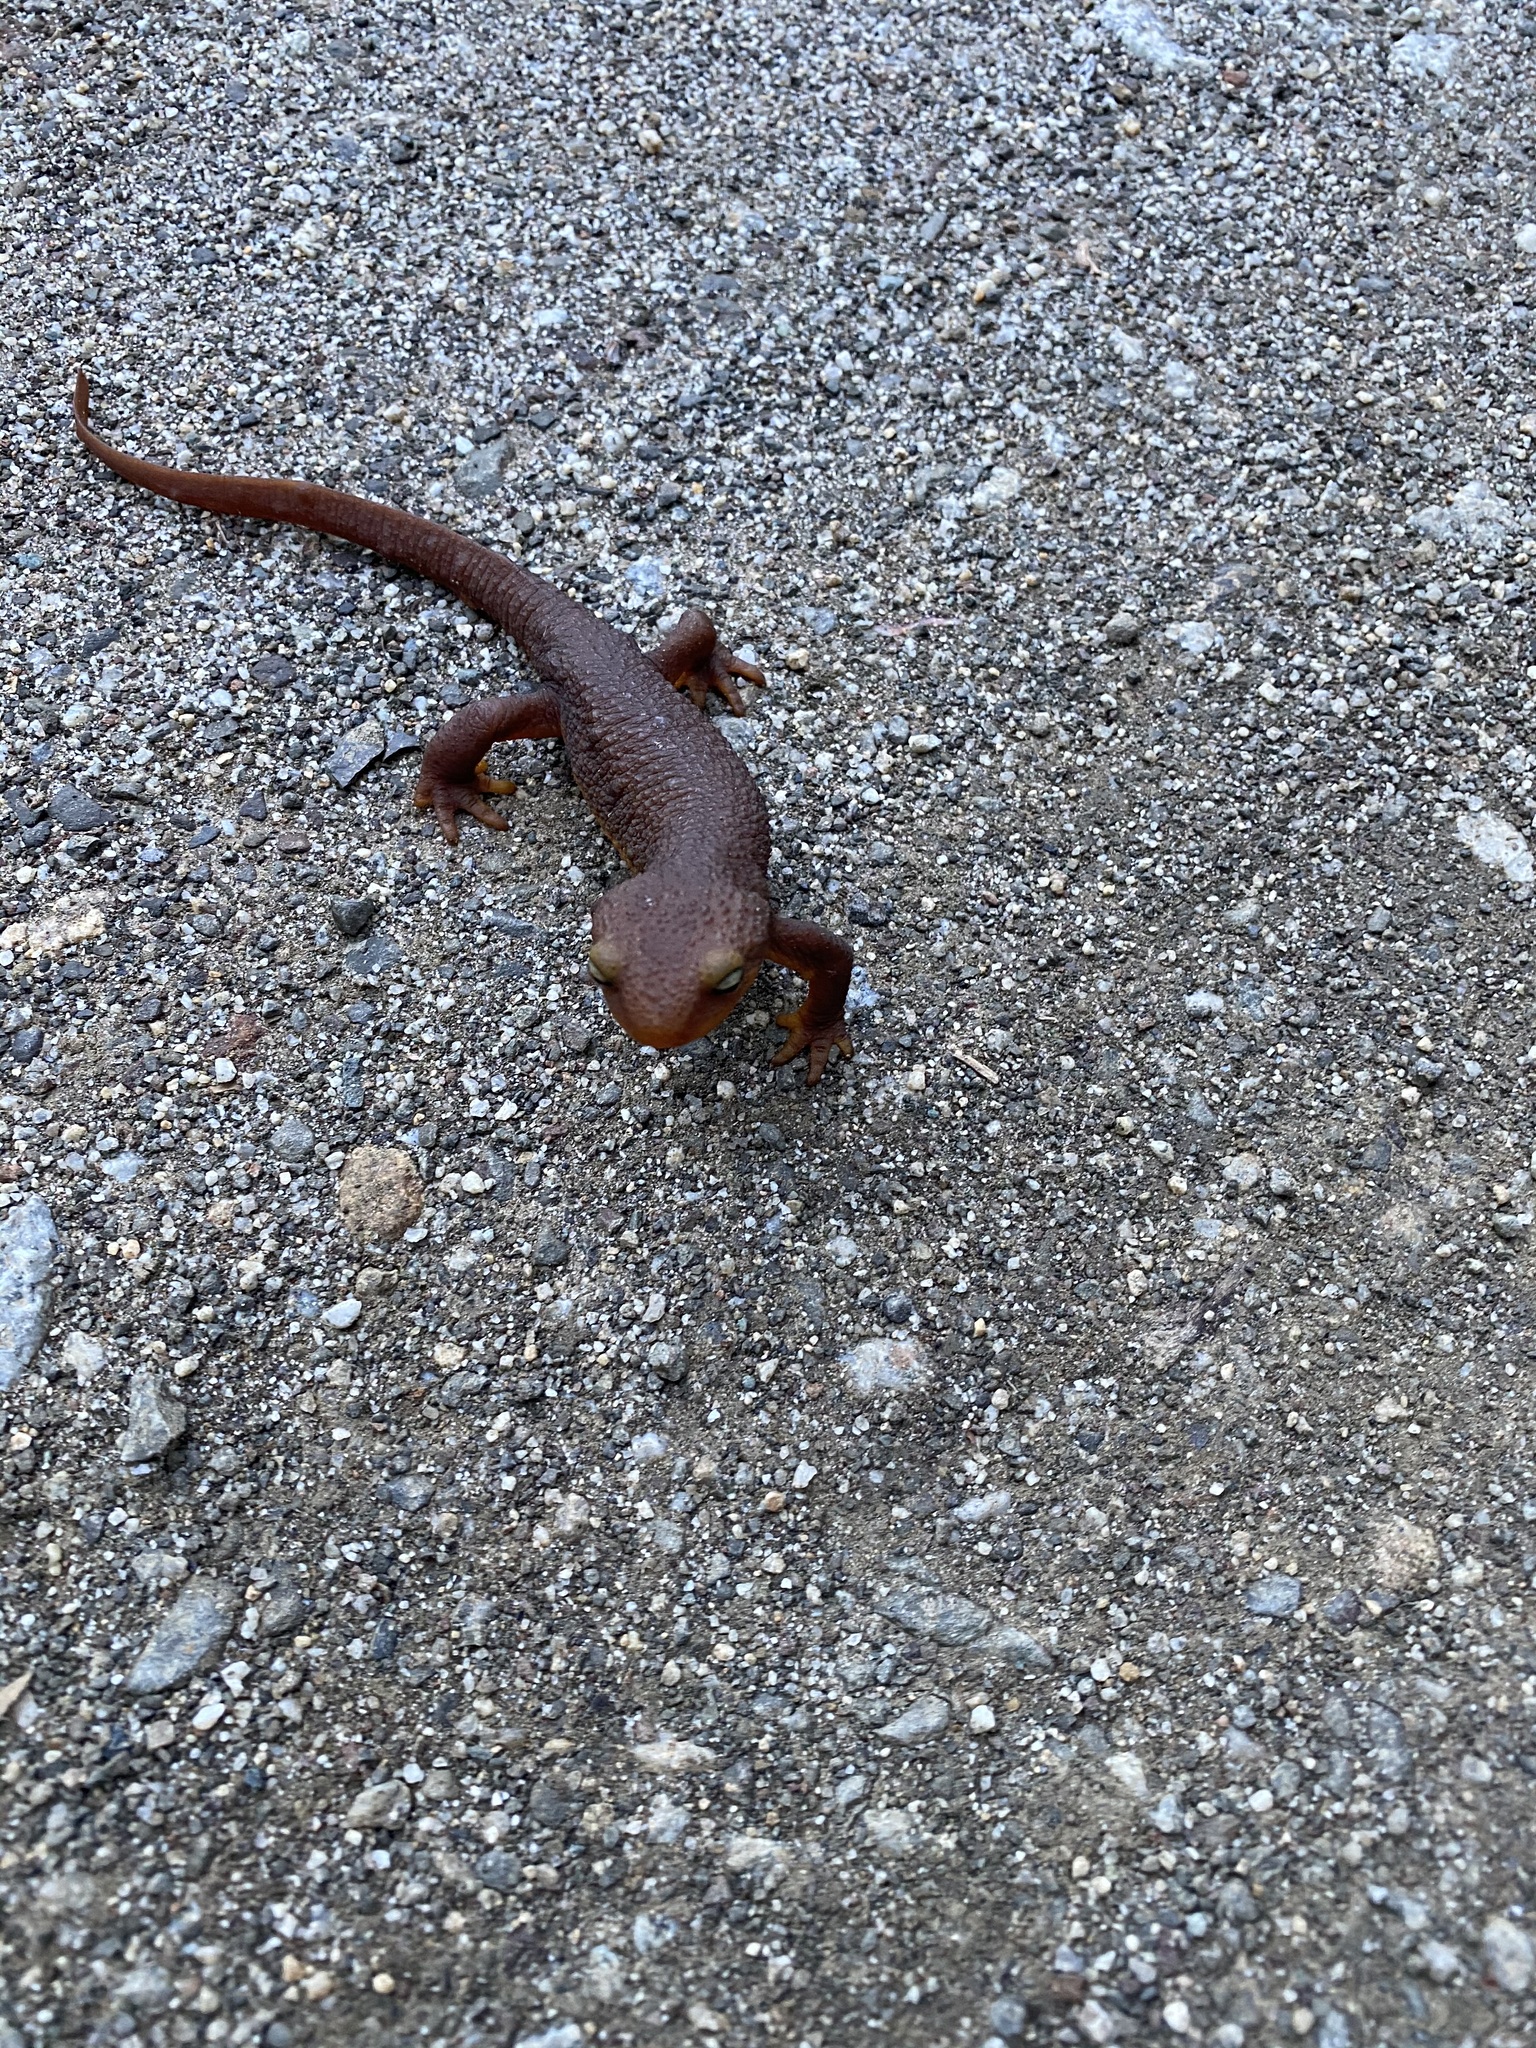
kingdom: Animalia
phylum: Chordata
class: Amphibia
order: Caudata
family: Salamandridae
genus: Taricha
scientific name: Taricha torosa
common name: California newt
